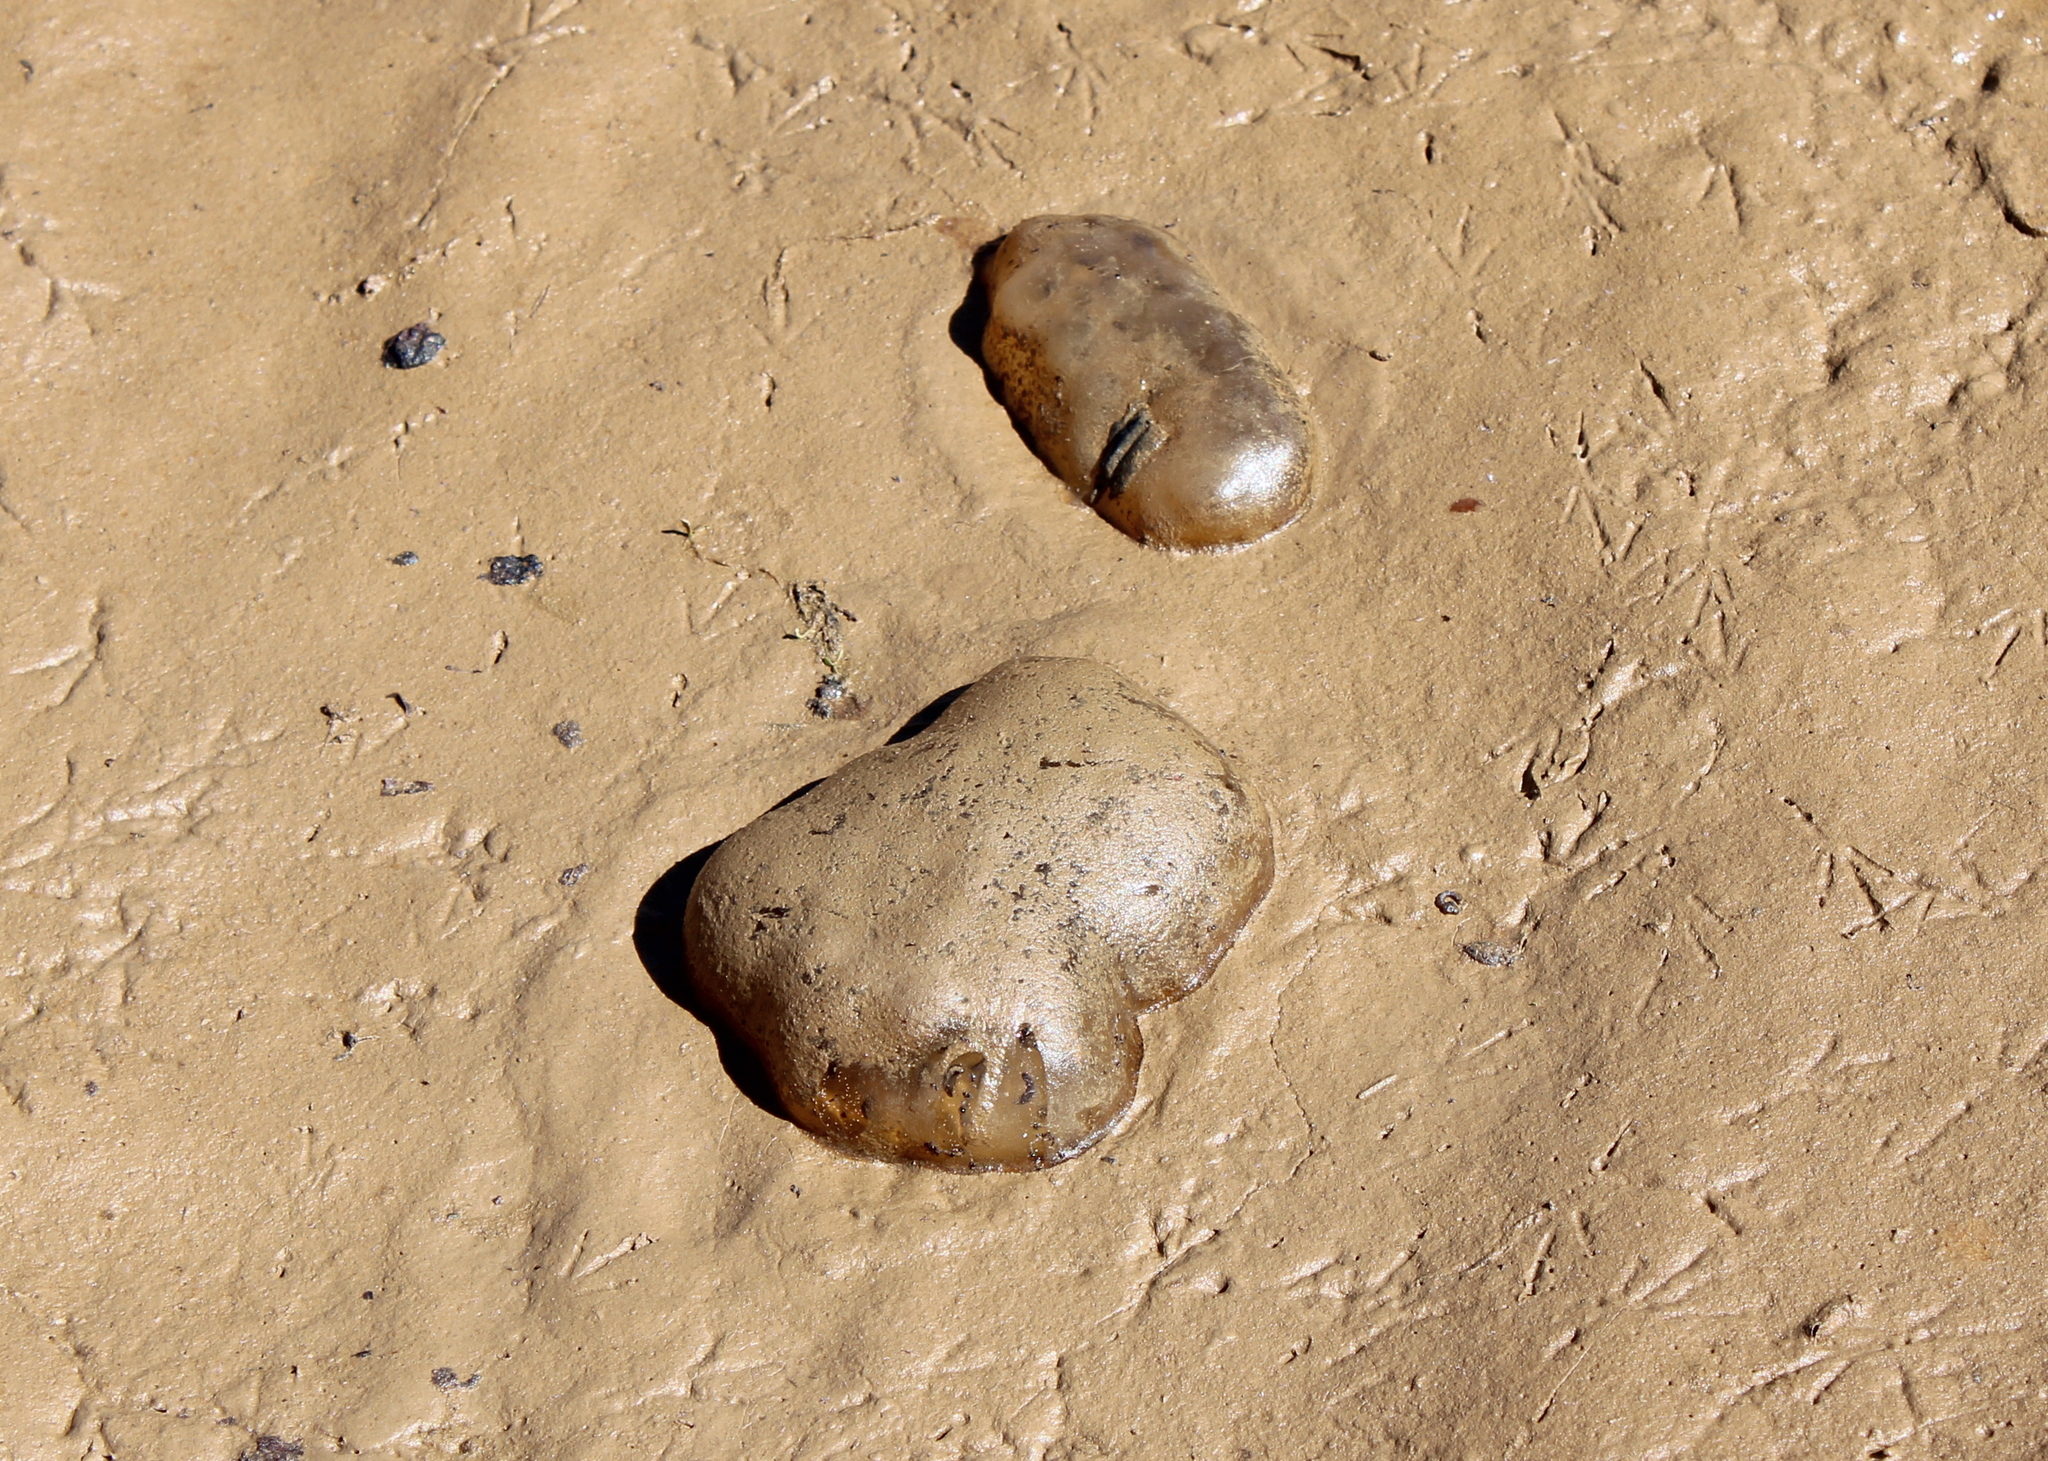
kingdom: Animalia
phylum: Chordata
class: Amphibia
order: Caudata
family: Ambystomatidae
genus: Ambystoma
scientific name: Ambystoma maculatum
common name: Spotted salamander
